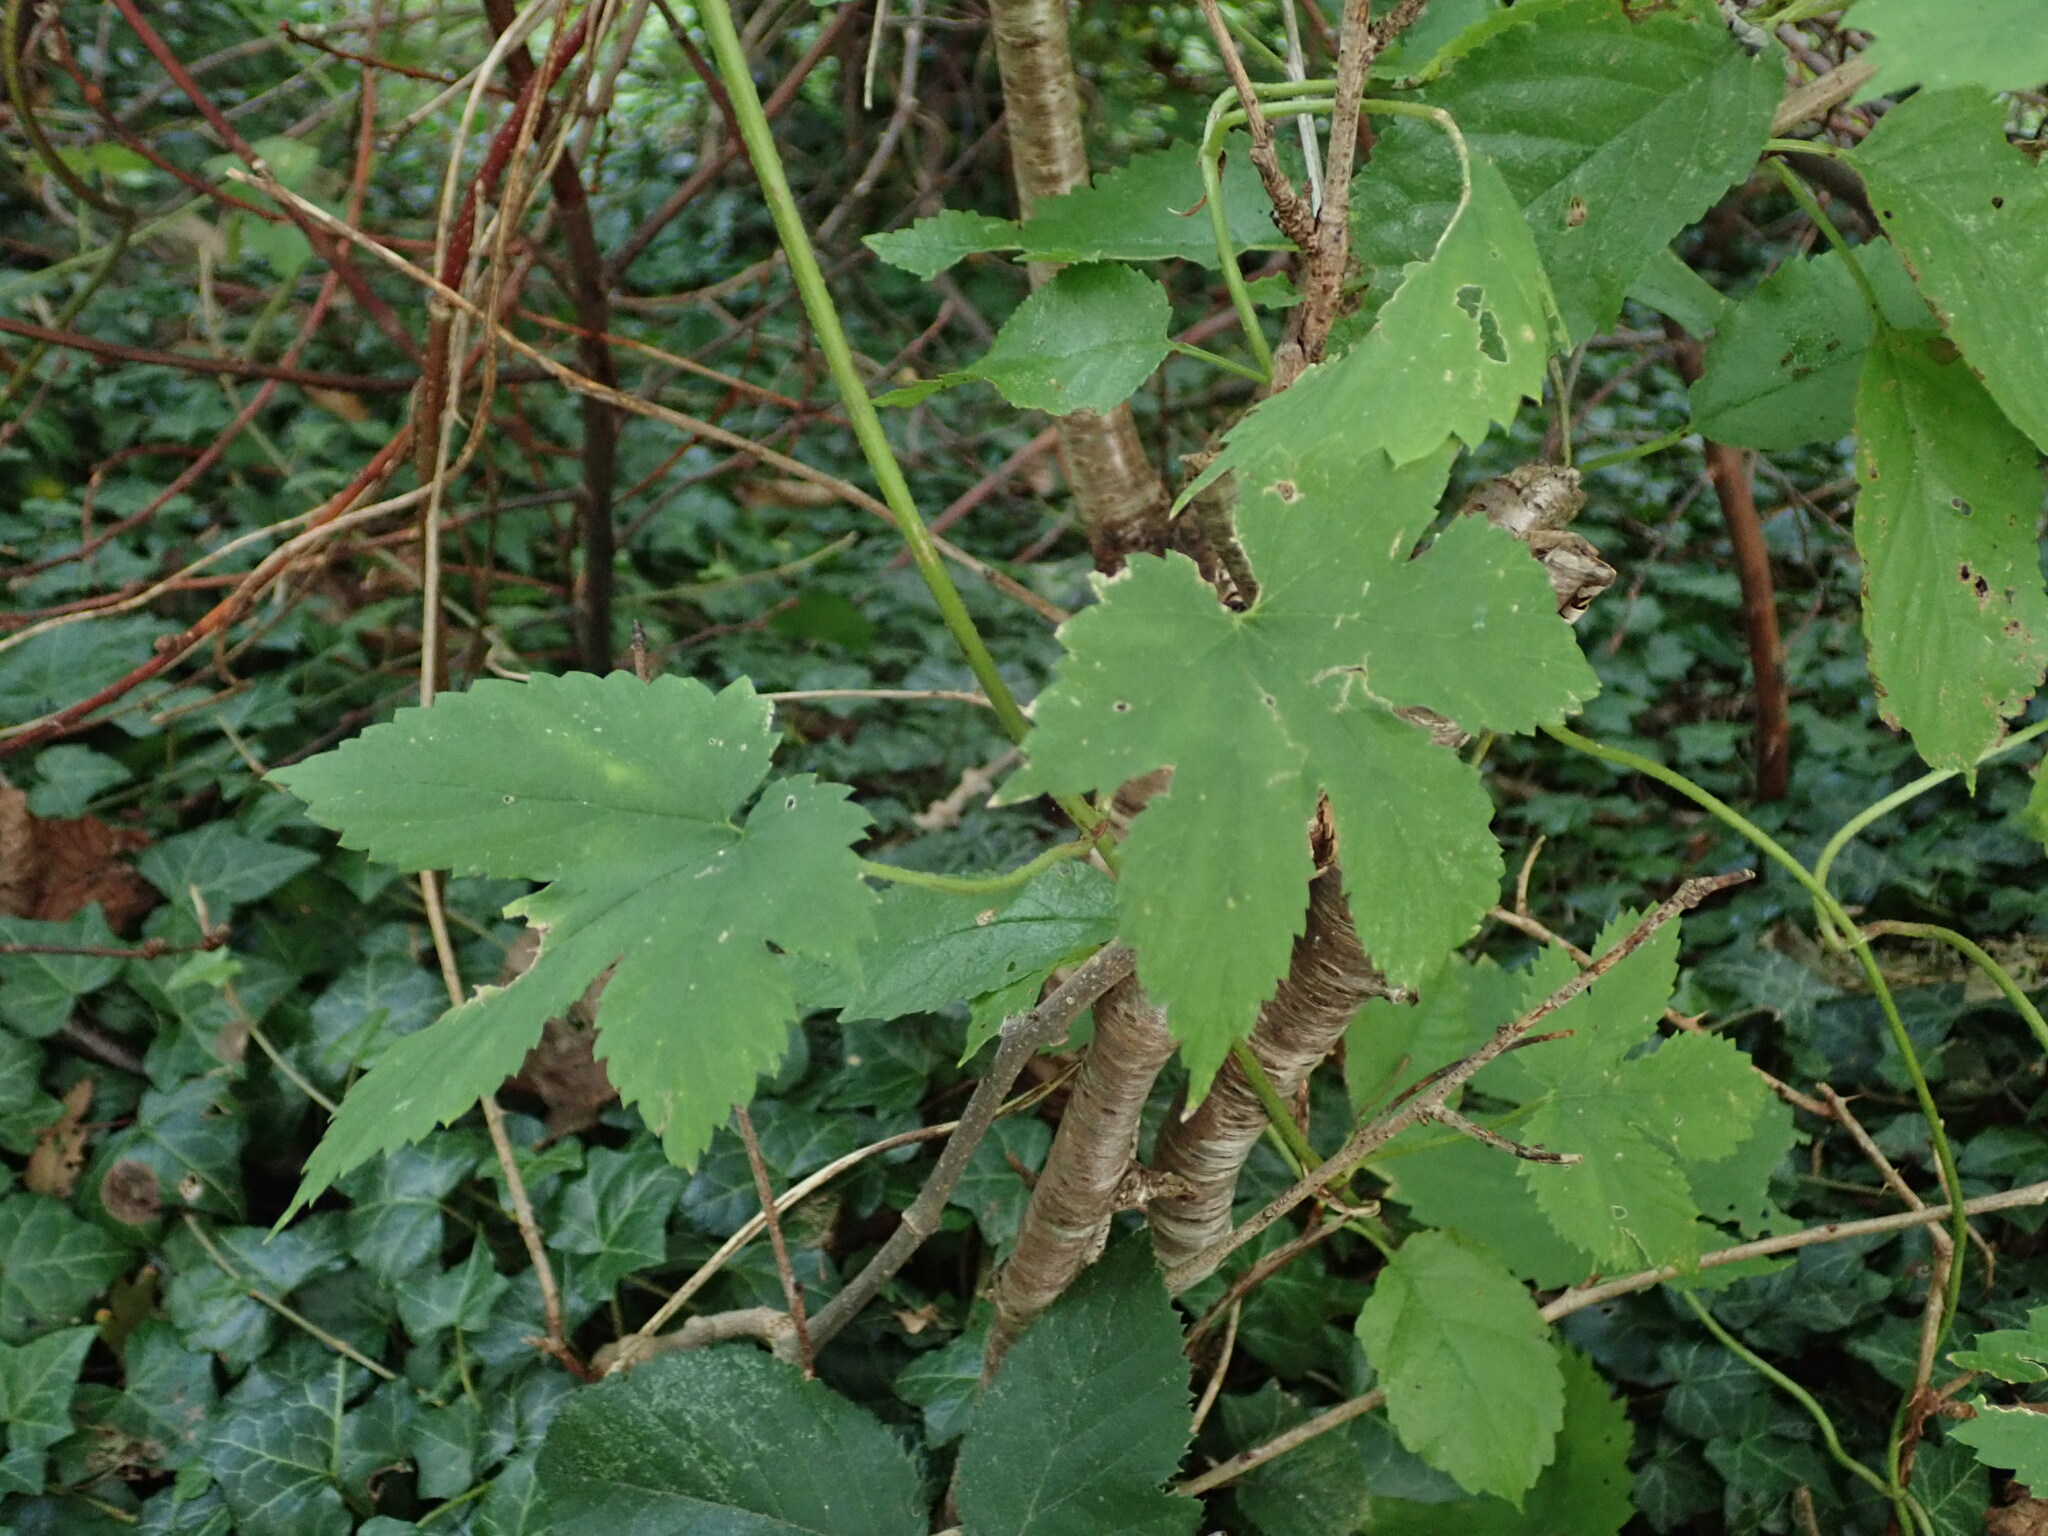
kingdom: Plantae
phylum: Tracheophyta
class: Magnoliopsida
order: Rosales
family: Cannabaceae
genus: Humulus
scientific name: Humulus lupulus
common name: Hop
